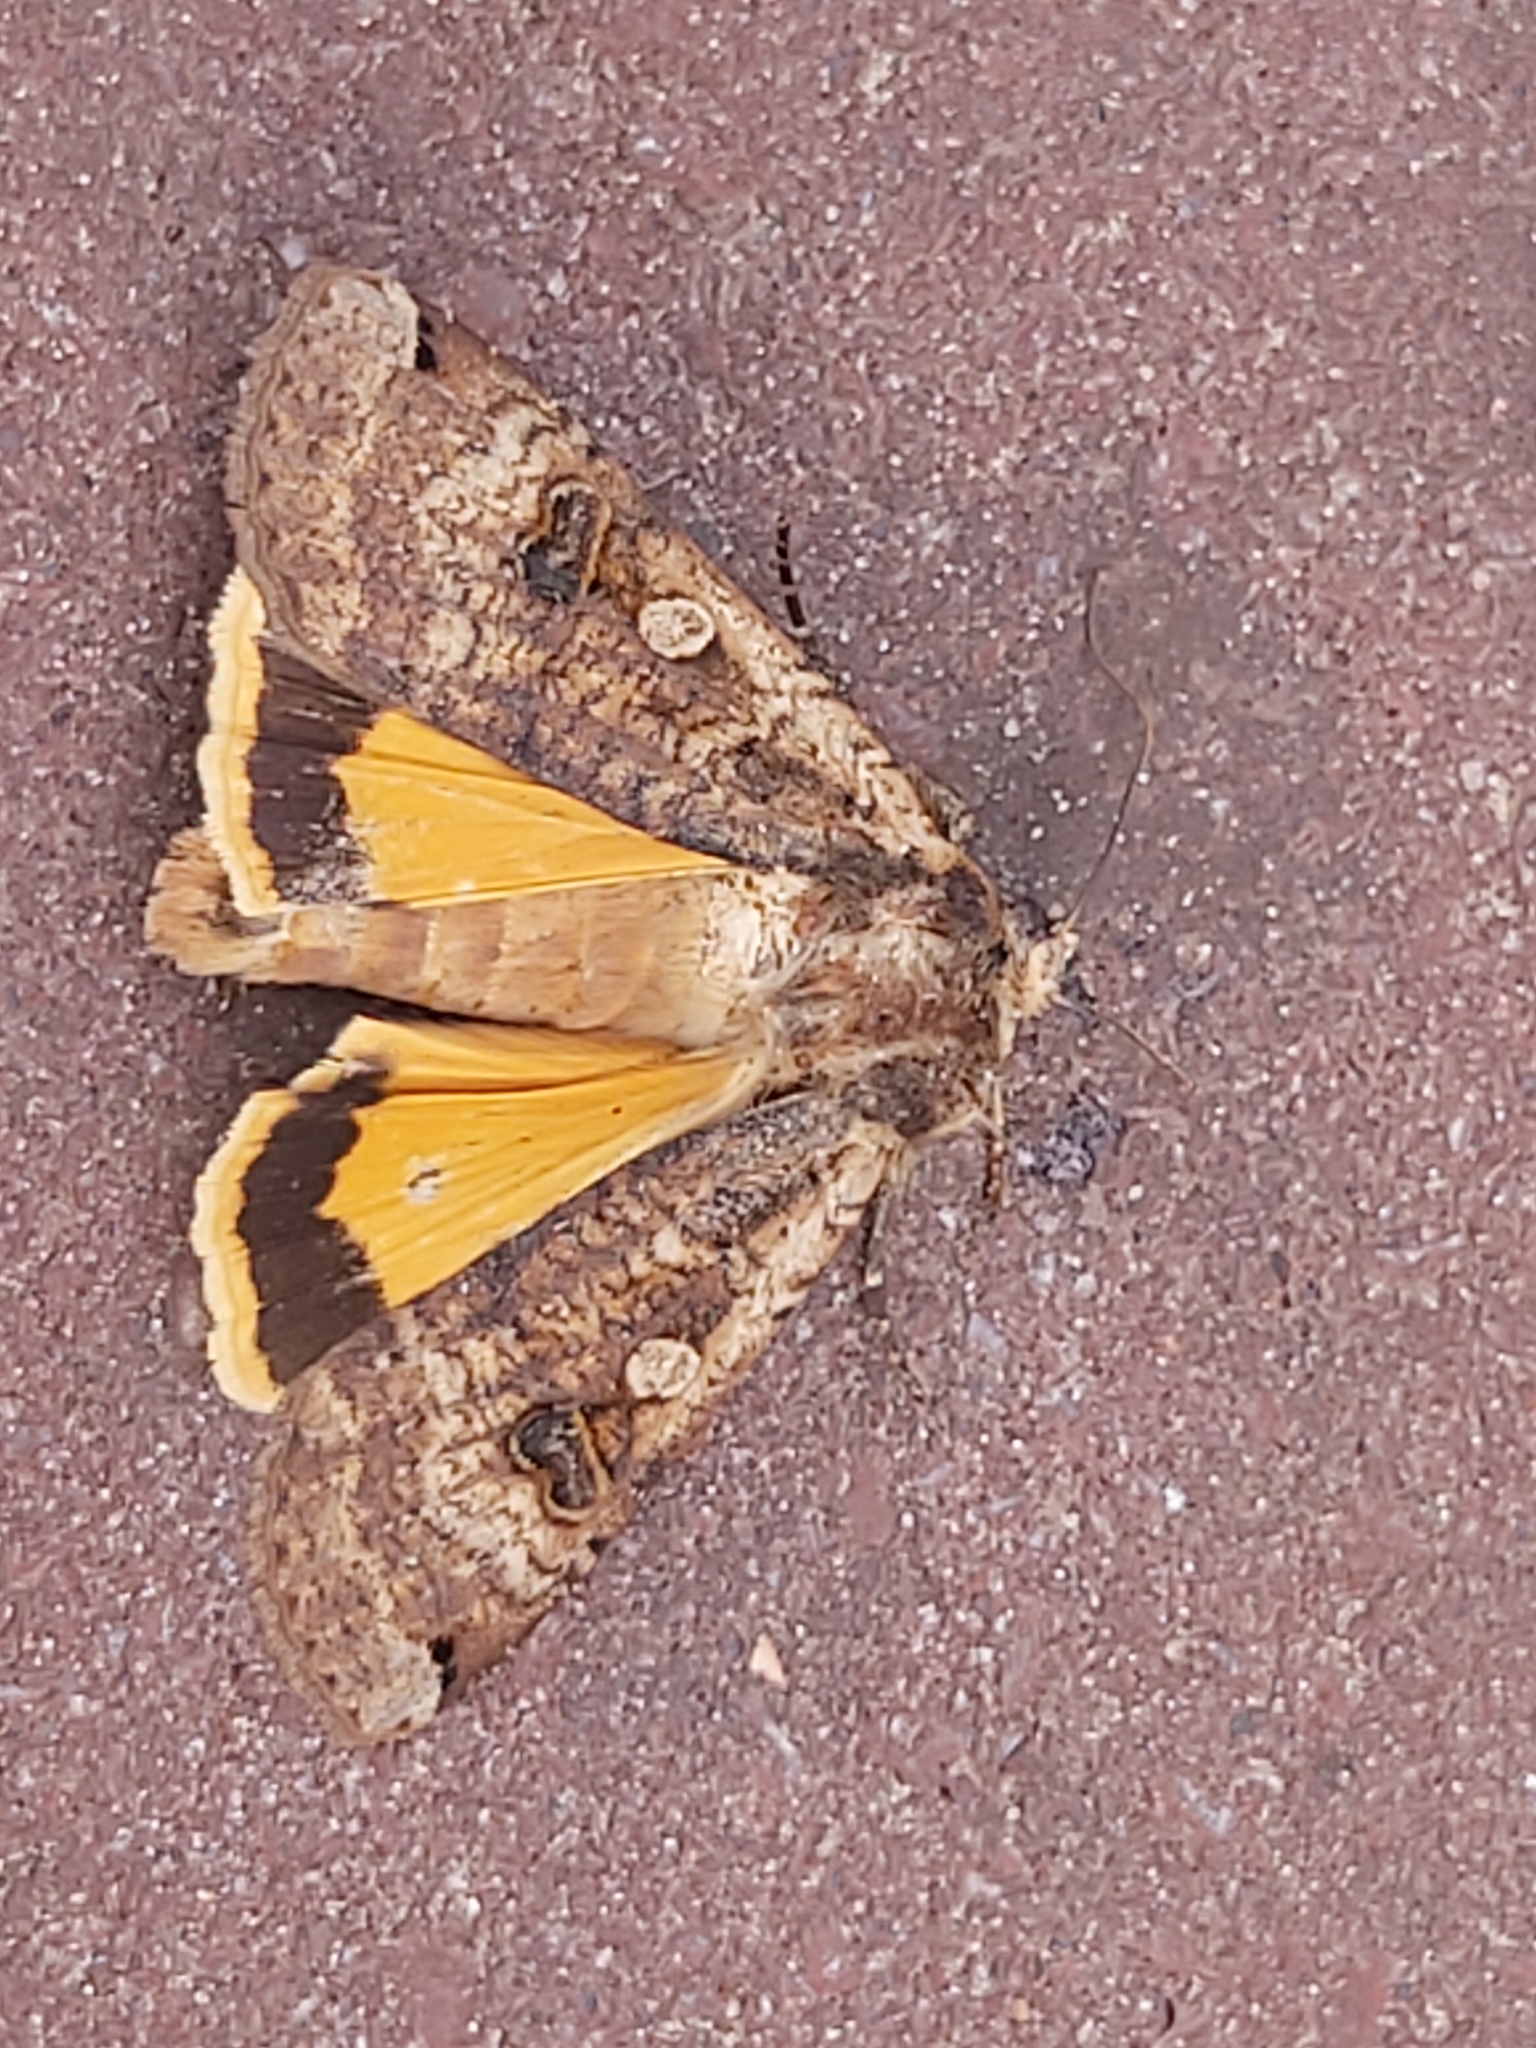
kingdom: Animalia
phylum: Arthropoda
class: Insecta
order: Lepidoptera
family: Noctuidae
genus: Noctua
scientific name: Noctua pronuba
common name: Large yellow underwing
